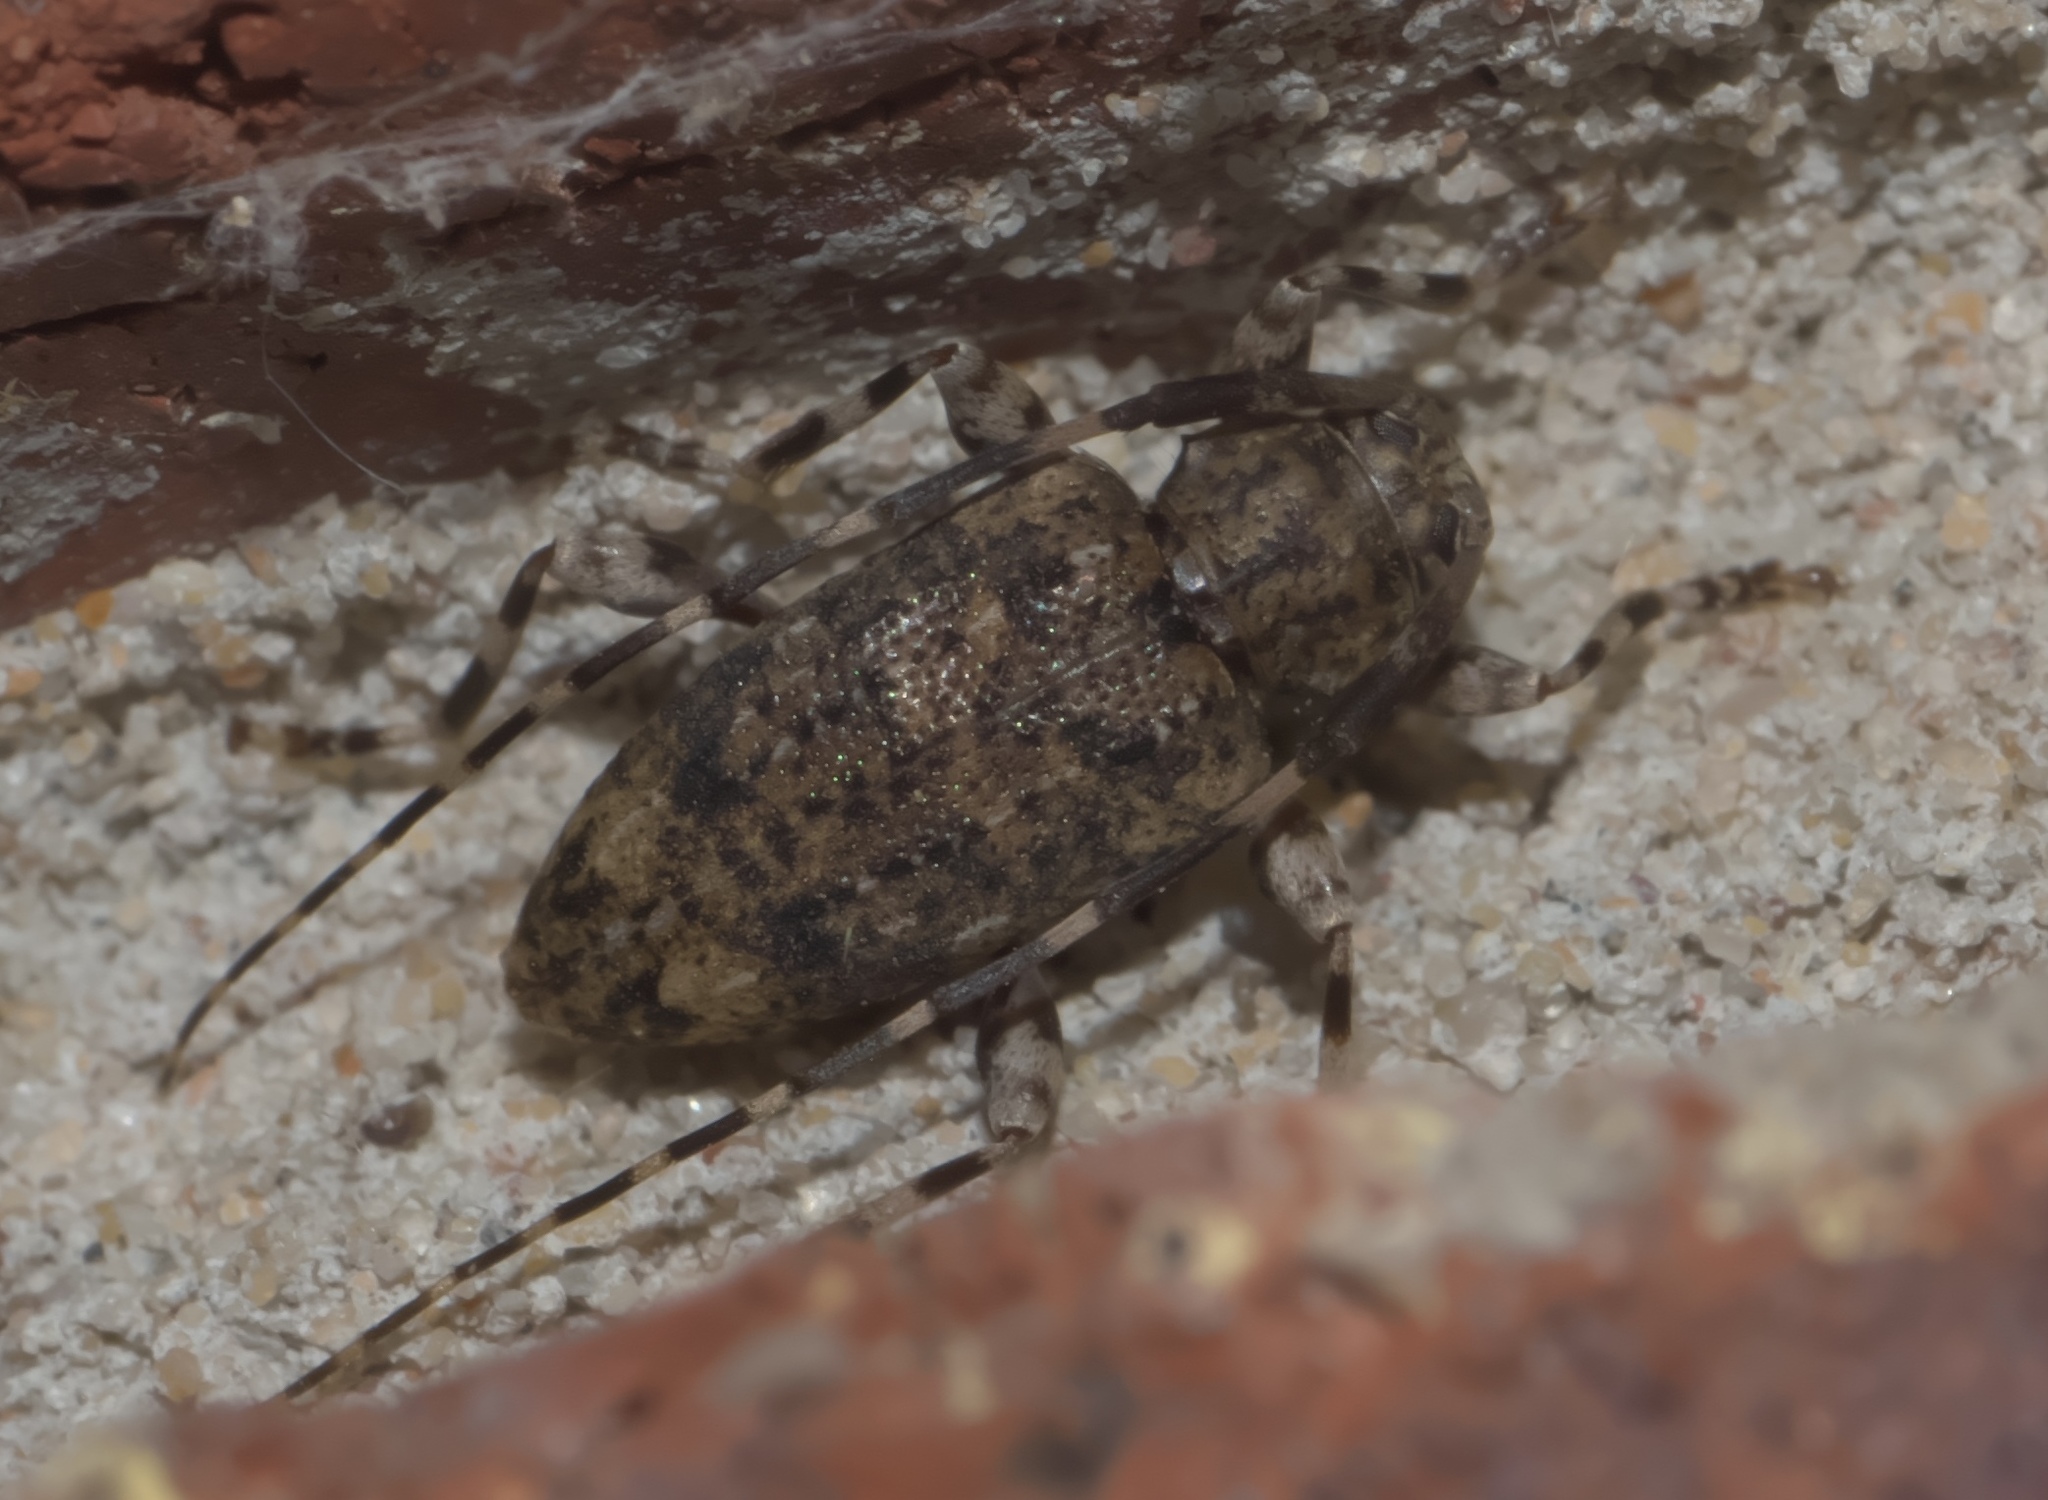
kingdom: Animalia
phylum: Arthropoda
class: Insecta
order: Coleoptera
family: Cerambycidae
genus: Astyleiopus
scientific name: Astyleiopus variegatus
